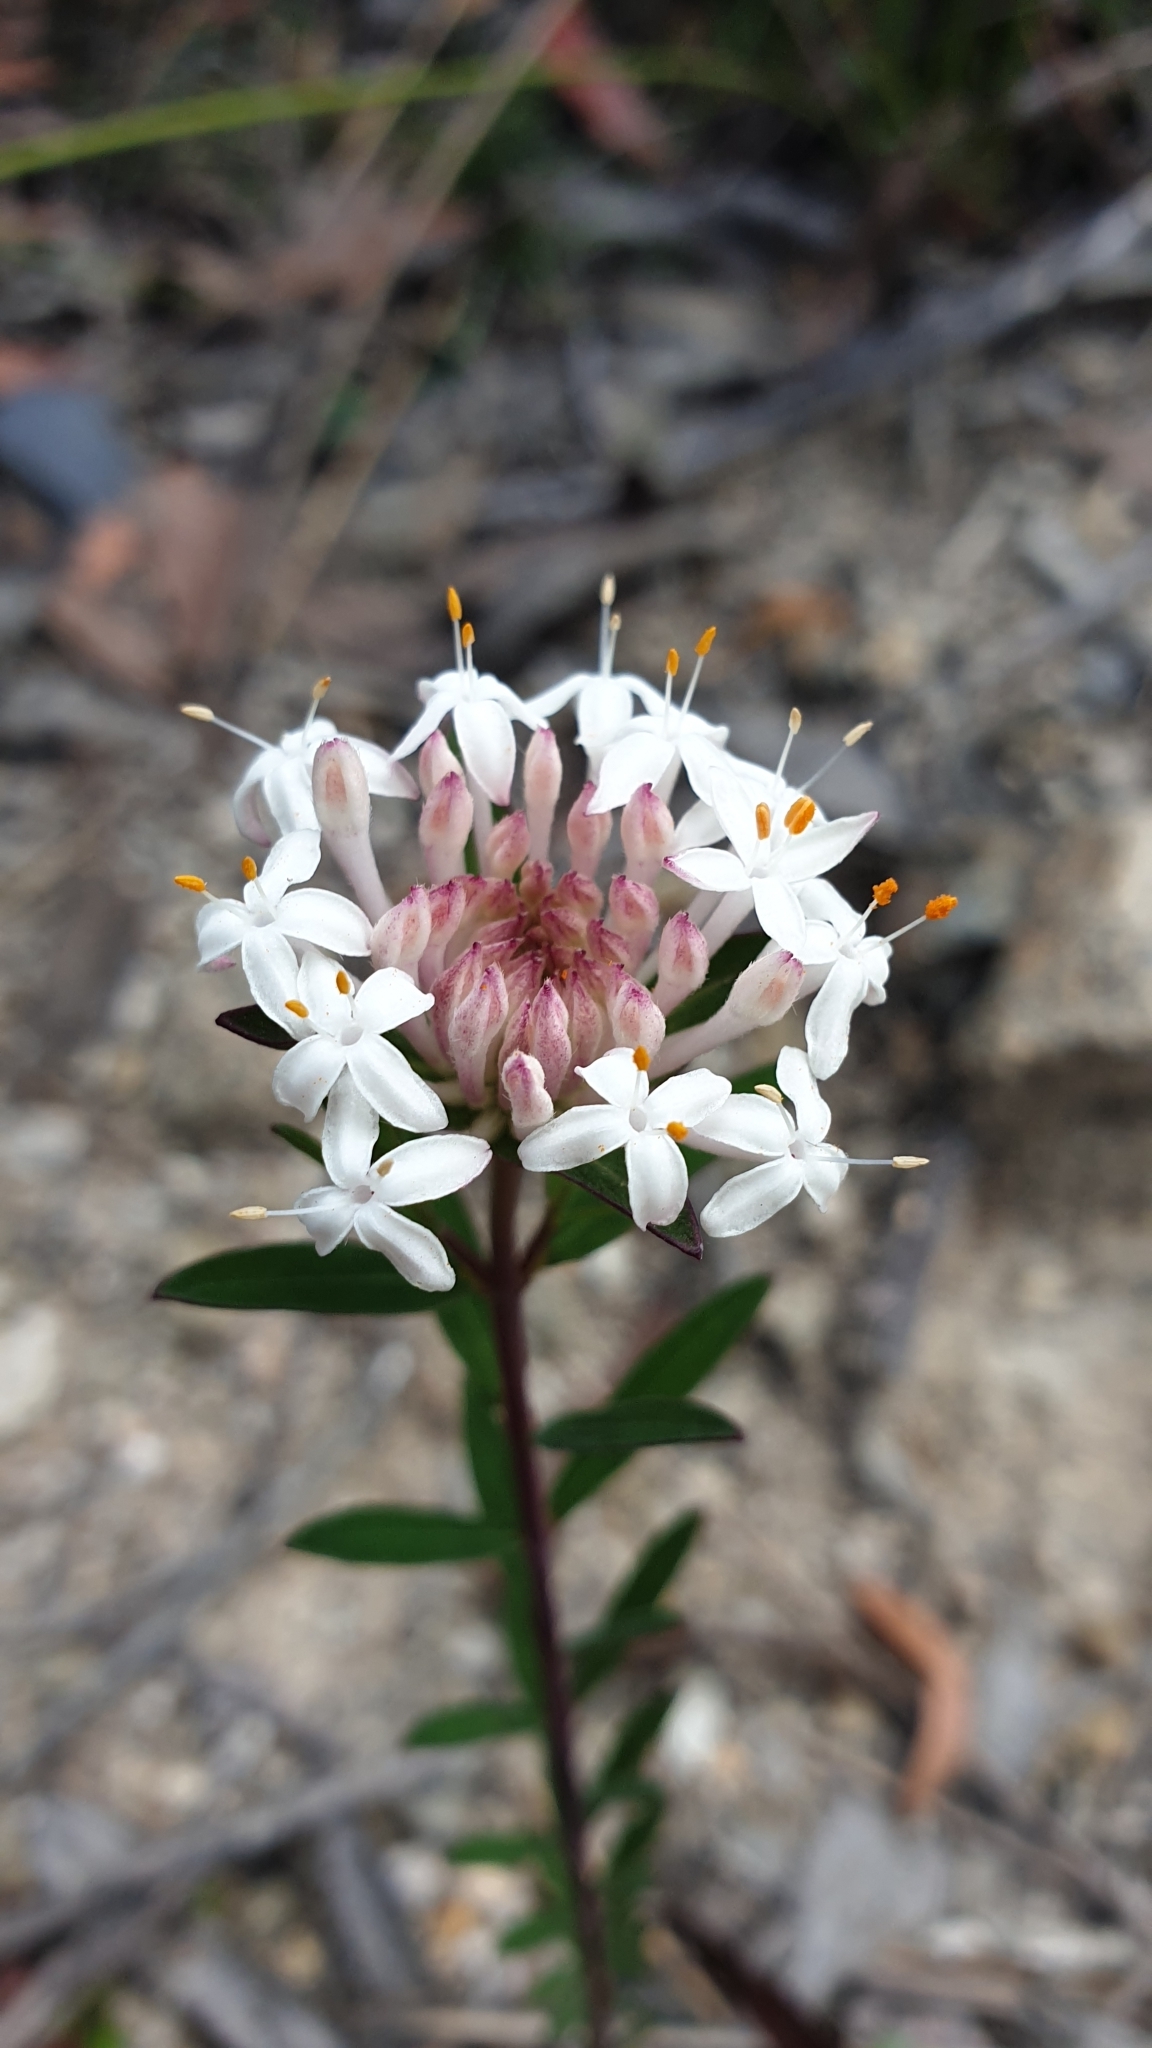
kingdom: Plantae
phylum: Tracheophyta
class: Magnoliopsida
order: Malvales
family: Thymelaeaceae
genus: Pimelea
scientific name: Pimelea linifolia
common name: Queen-of-the-bush
